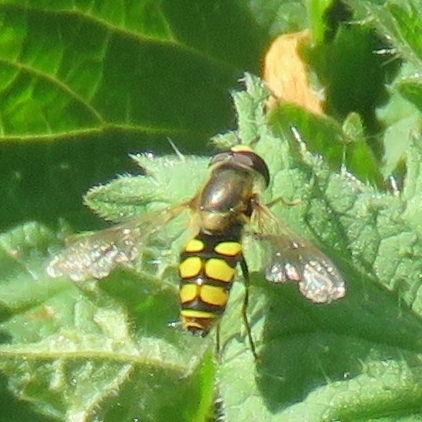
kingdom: Animalia
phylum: Arthropoda
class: Insecta
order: Diptera
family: Syrphidae
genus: Eupeodes
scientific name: Eupeodes corollae
